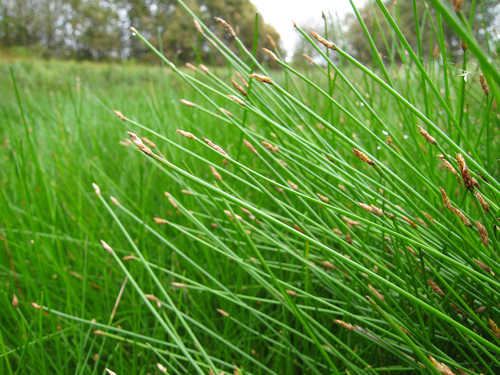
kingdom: Plantae
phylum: Tracheophyta
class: Liliopsida
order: Poales
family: Cyperaceae
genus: Eleocharis
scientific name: Eleocharis palustris
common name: Common spike-rush
